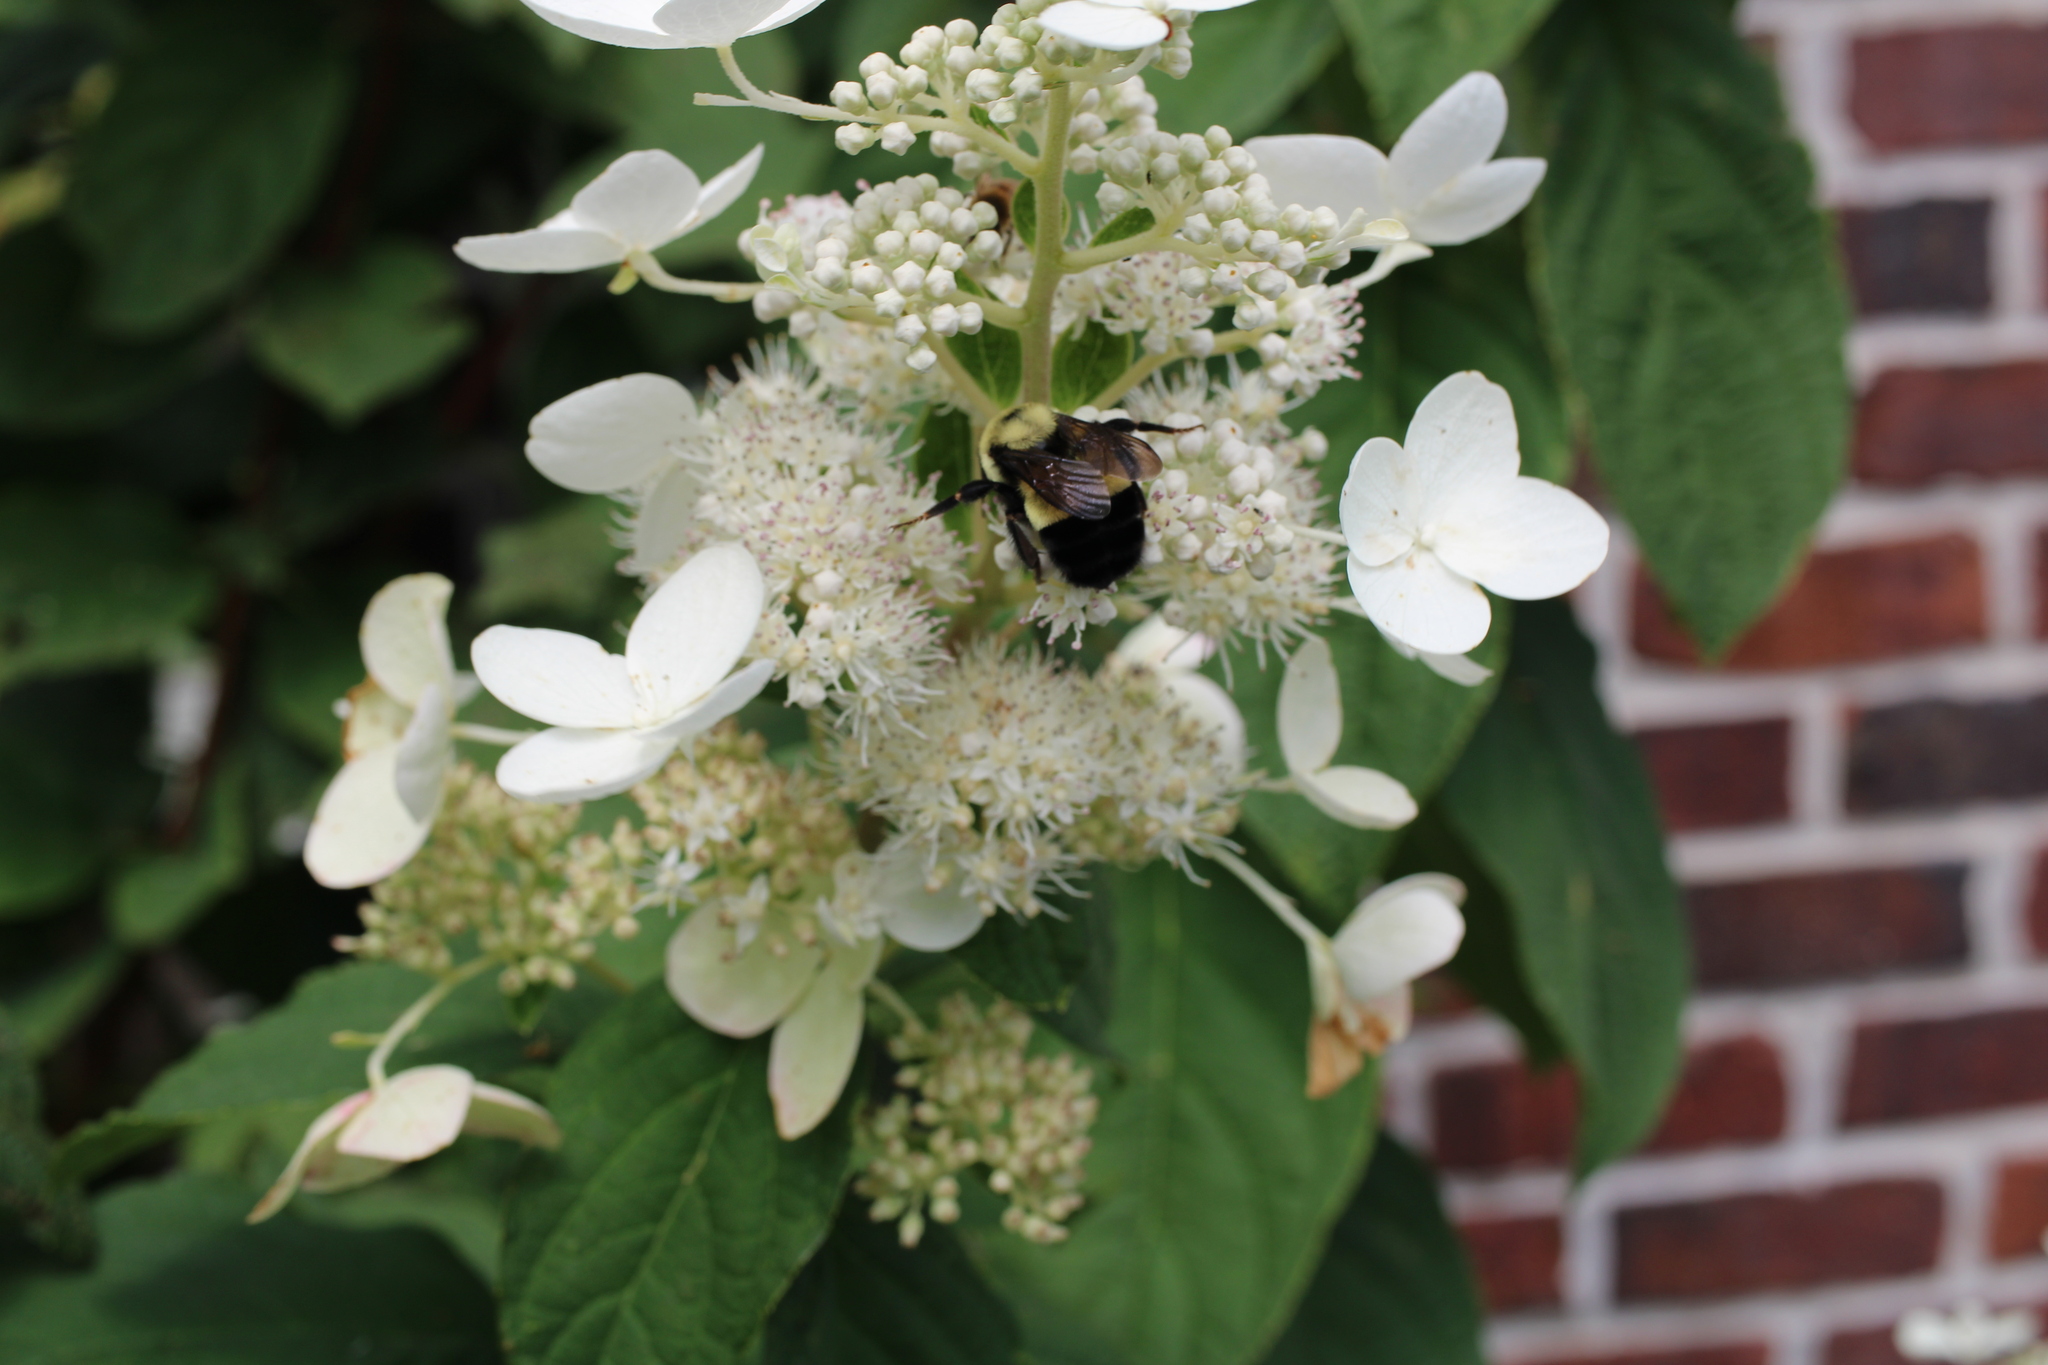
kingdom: Animalia
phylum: Arthropoda
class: Insecta
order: Hymenoptera
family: Apidae
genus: Bombus
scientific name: Bombus affinis
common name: Rusty patched bumble bee
